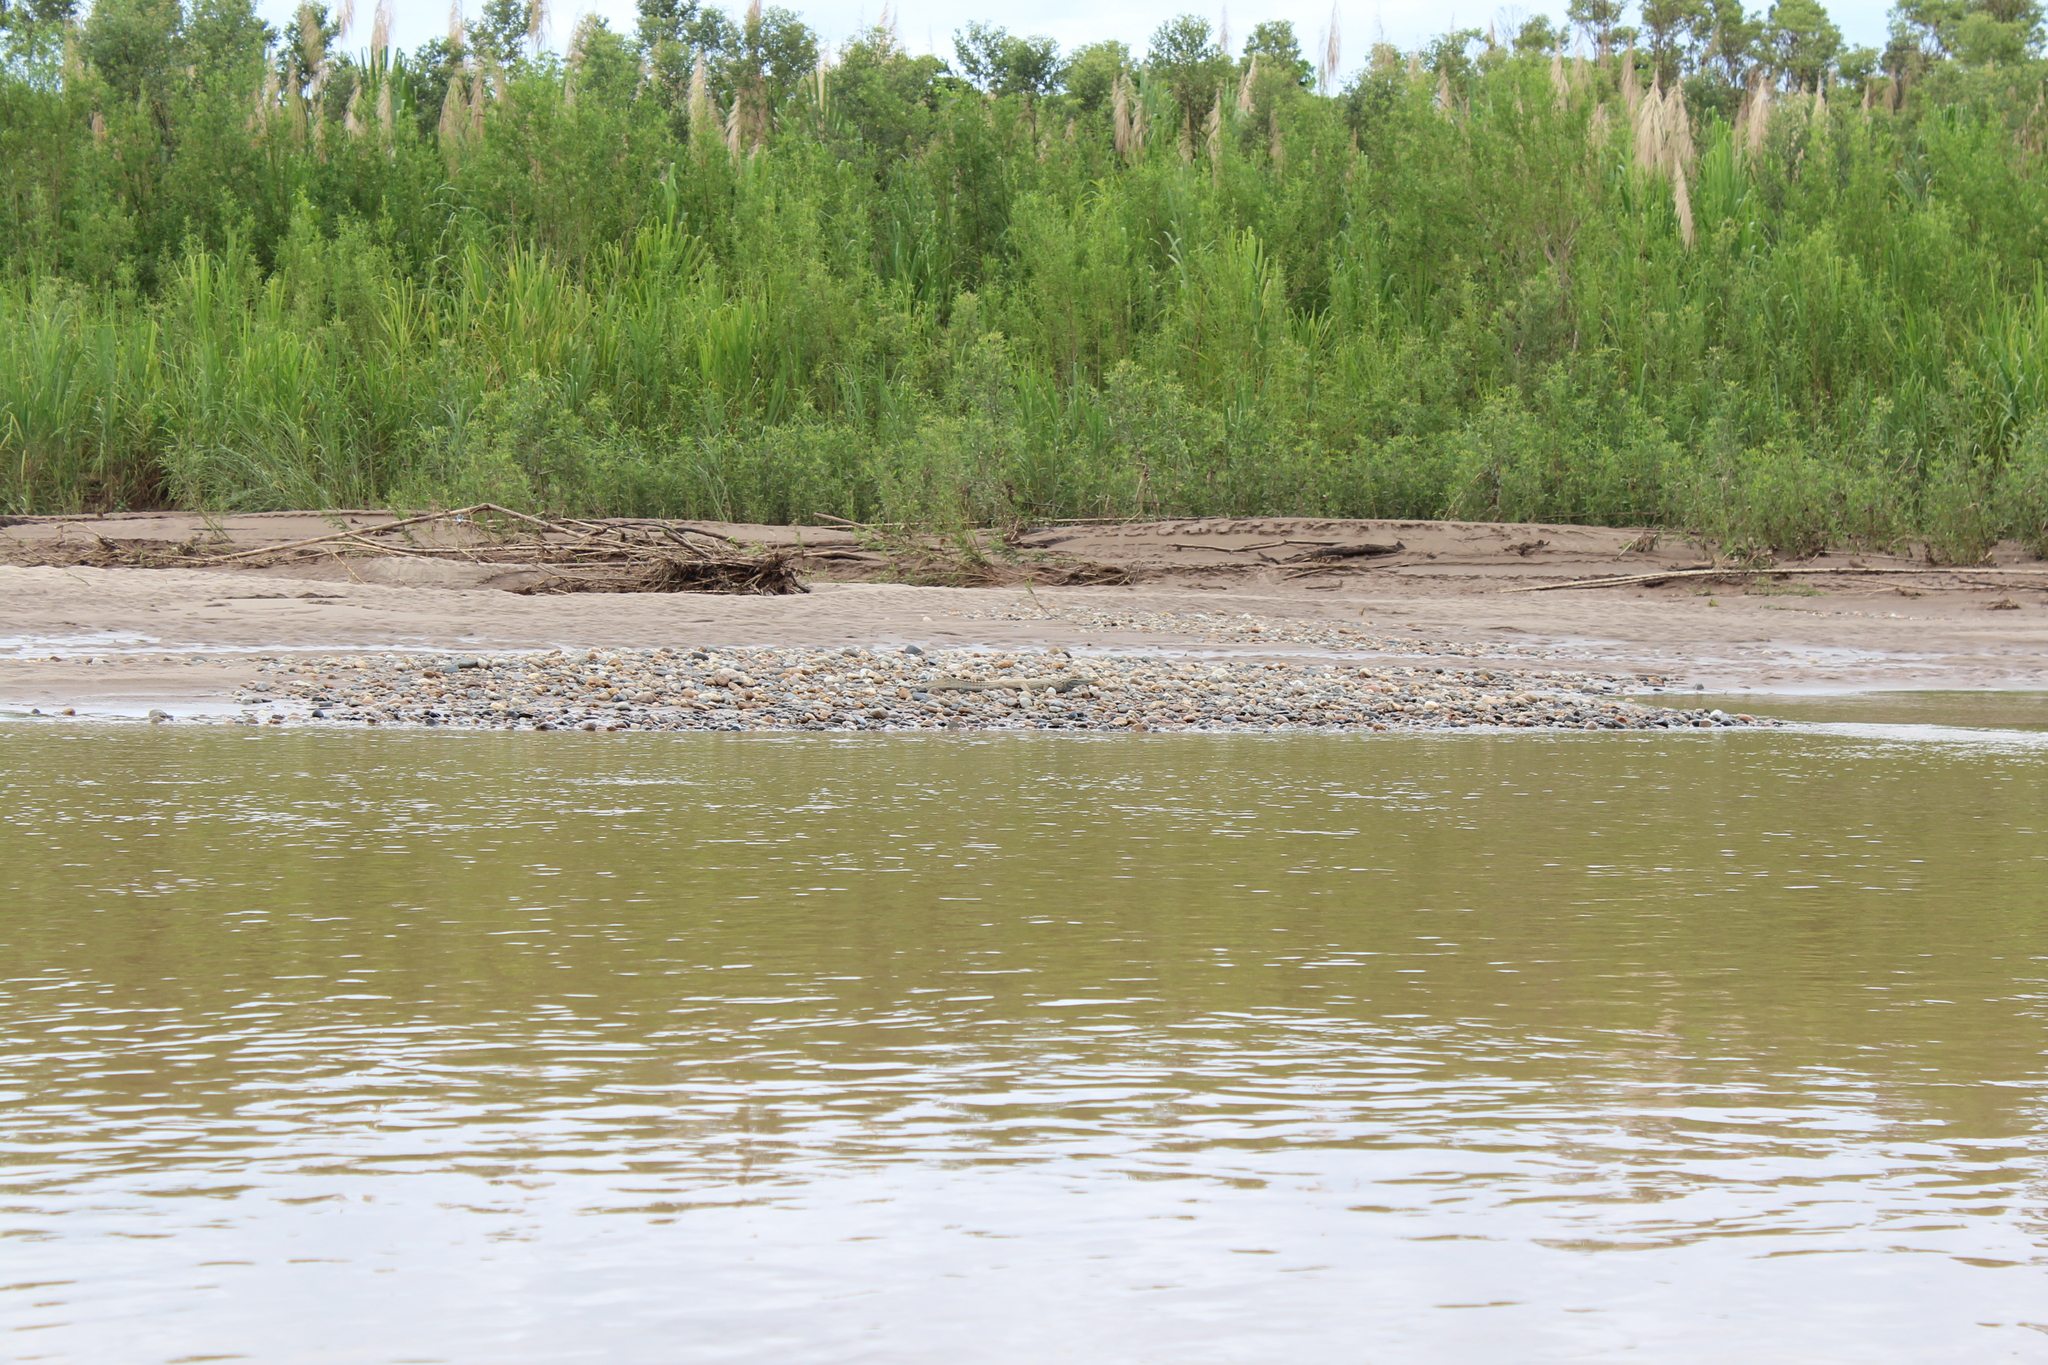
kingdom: Animalia
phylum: Chordata
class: Crocodylia
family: Alligatoridae
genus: Caiman
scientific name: Caiman crocodilus
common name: Common caiman
